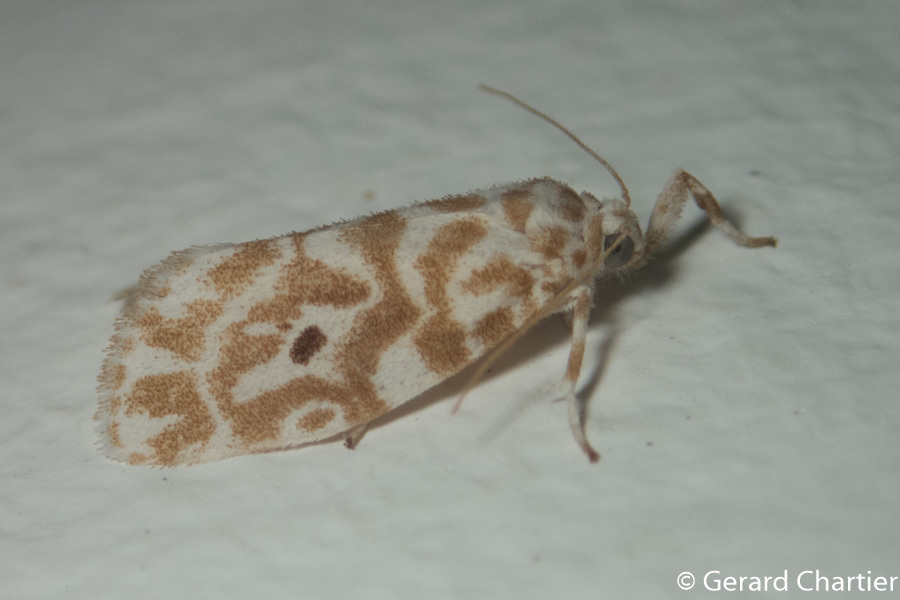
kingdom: Animalia
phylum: Arthropoda
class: Insecta
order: Lepidoptera
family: Erebidae
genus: Cabarda
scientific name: Cabarda nigripuncta
